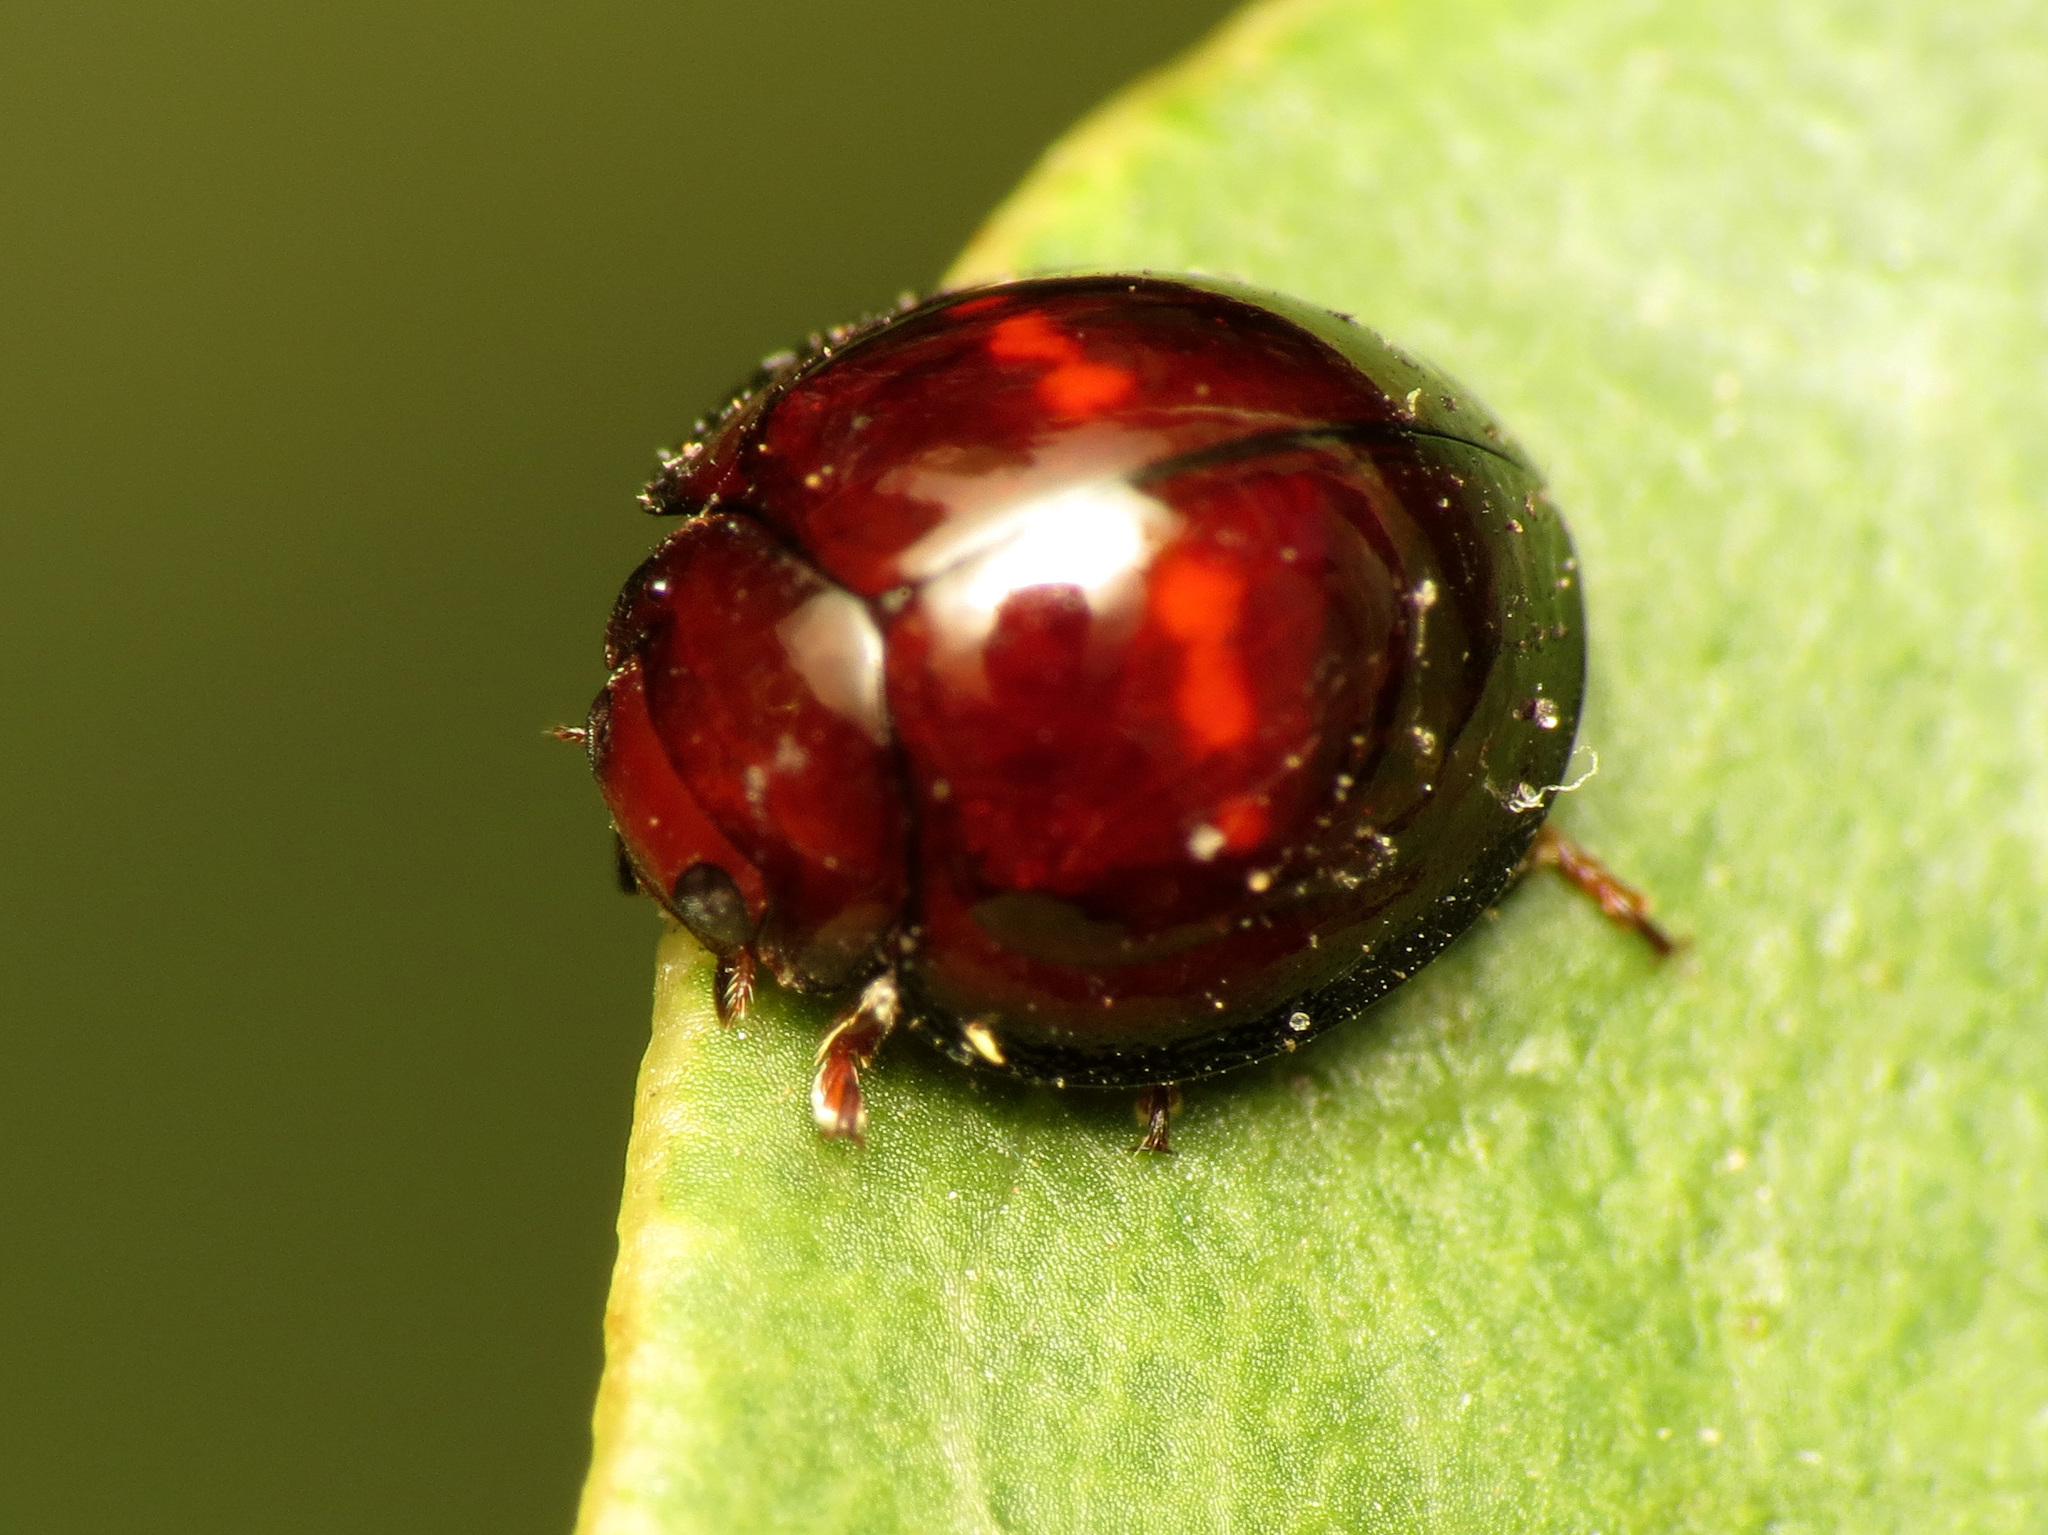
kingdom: Animalia
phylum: Arthropoda
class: Insecta
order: Coleoptera
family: Coccinellidae
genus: Chilocorus
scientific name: Chilocorus bipustulatus
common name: Heather ladybird
